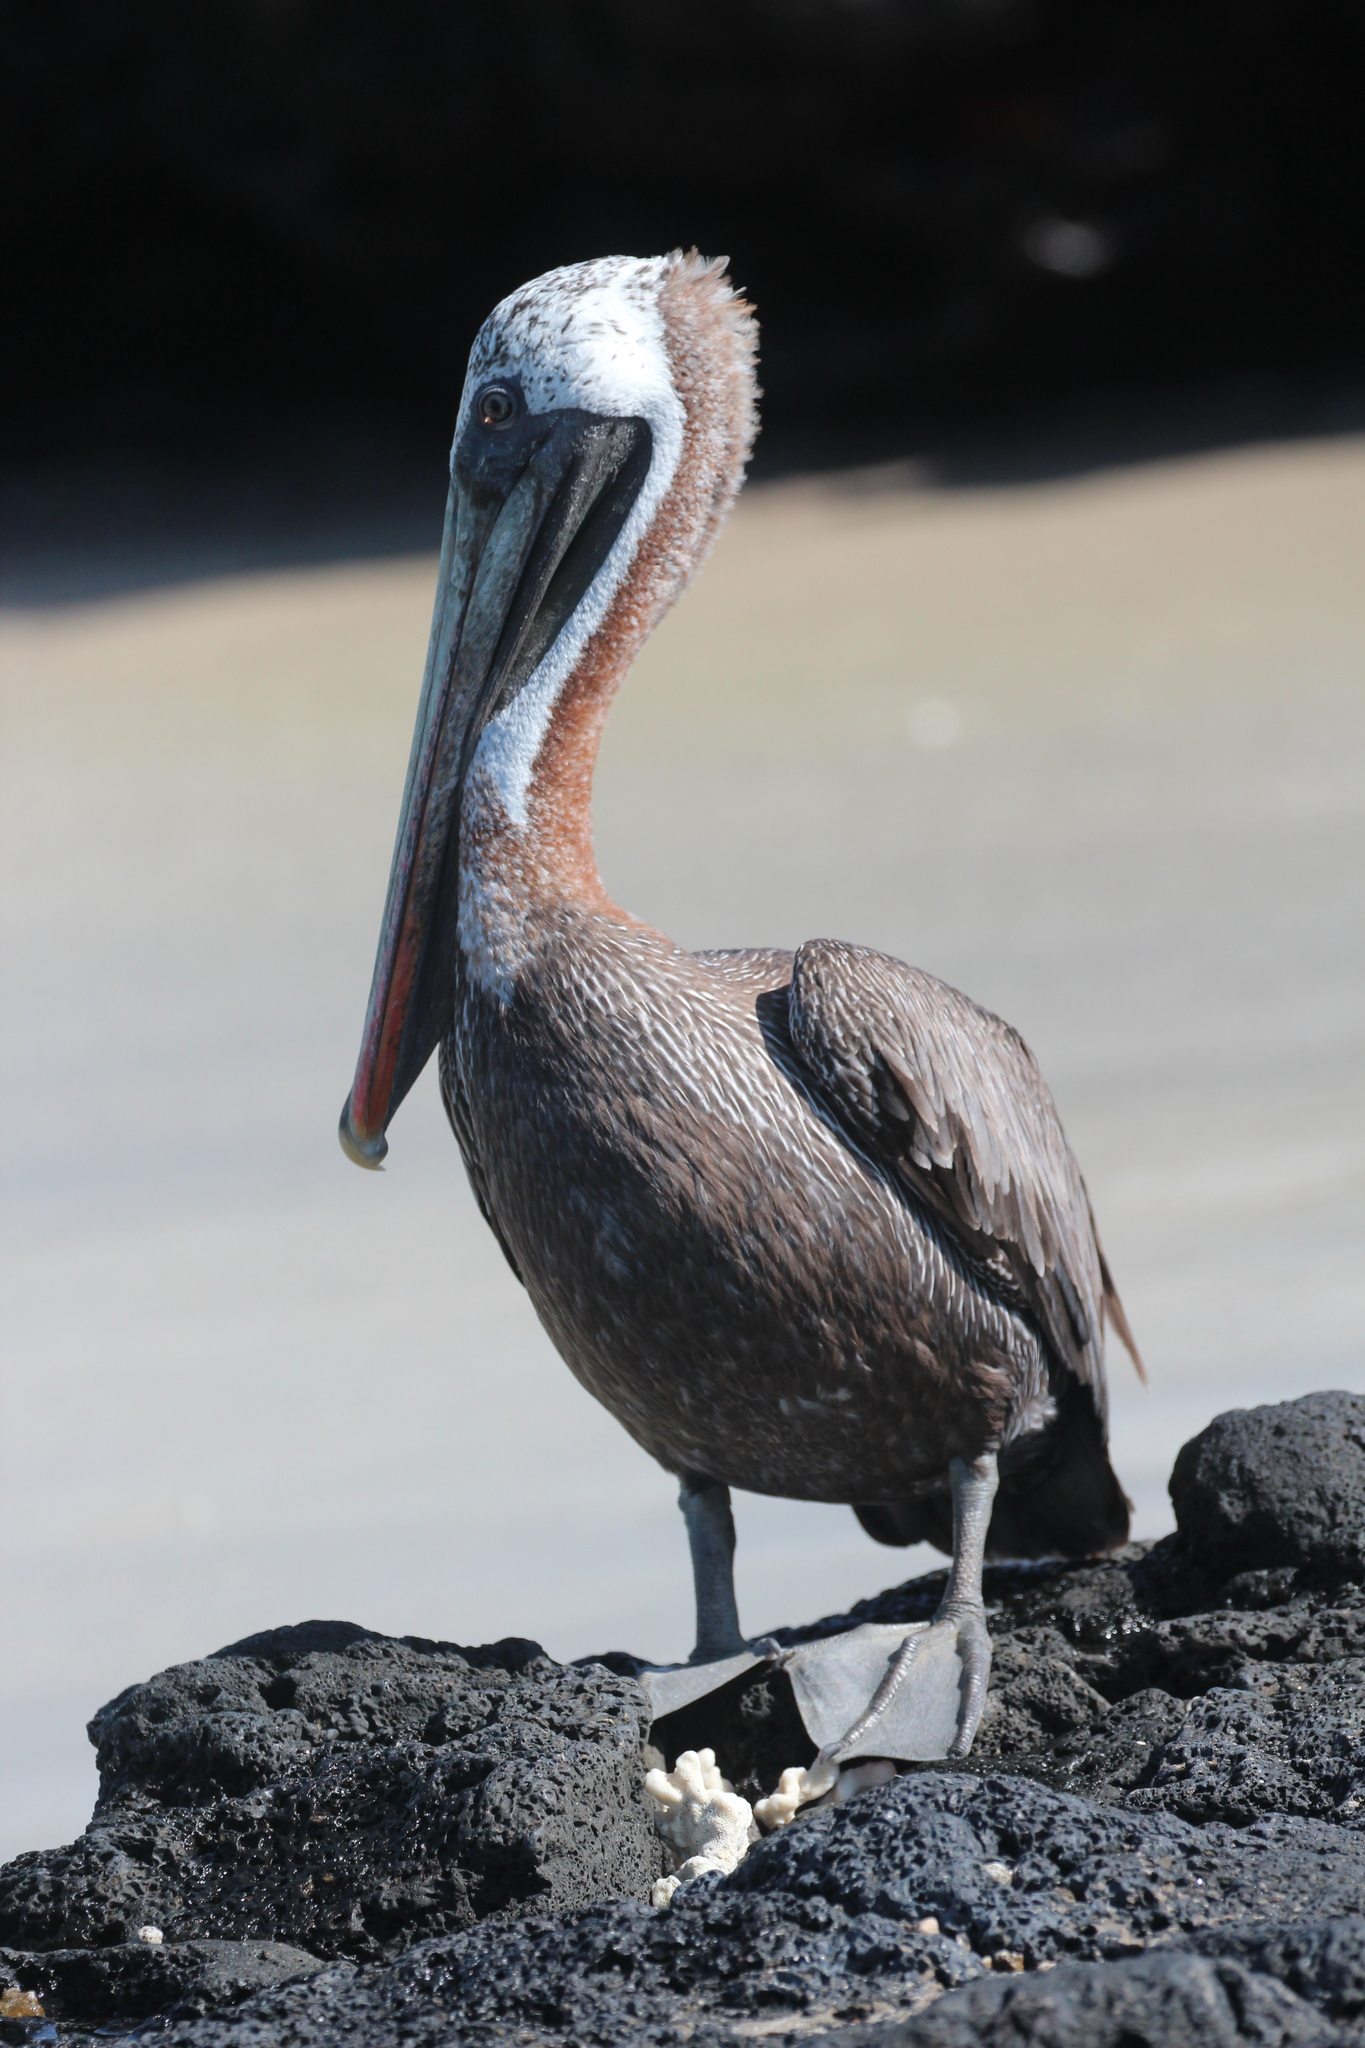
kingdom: Animalia
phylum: Chordata
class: Aves
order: Pelecaniformes
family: Pelecanidae
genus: Pelecanus
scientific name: Pelecanus occidentalis
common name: Brown pelican
